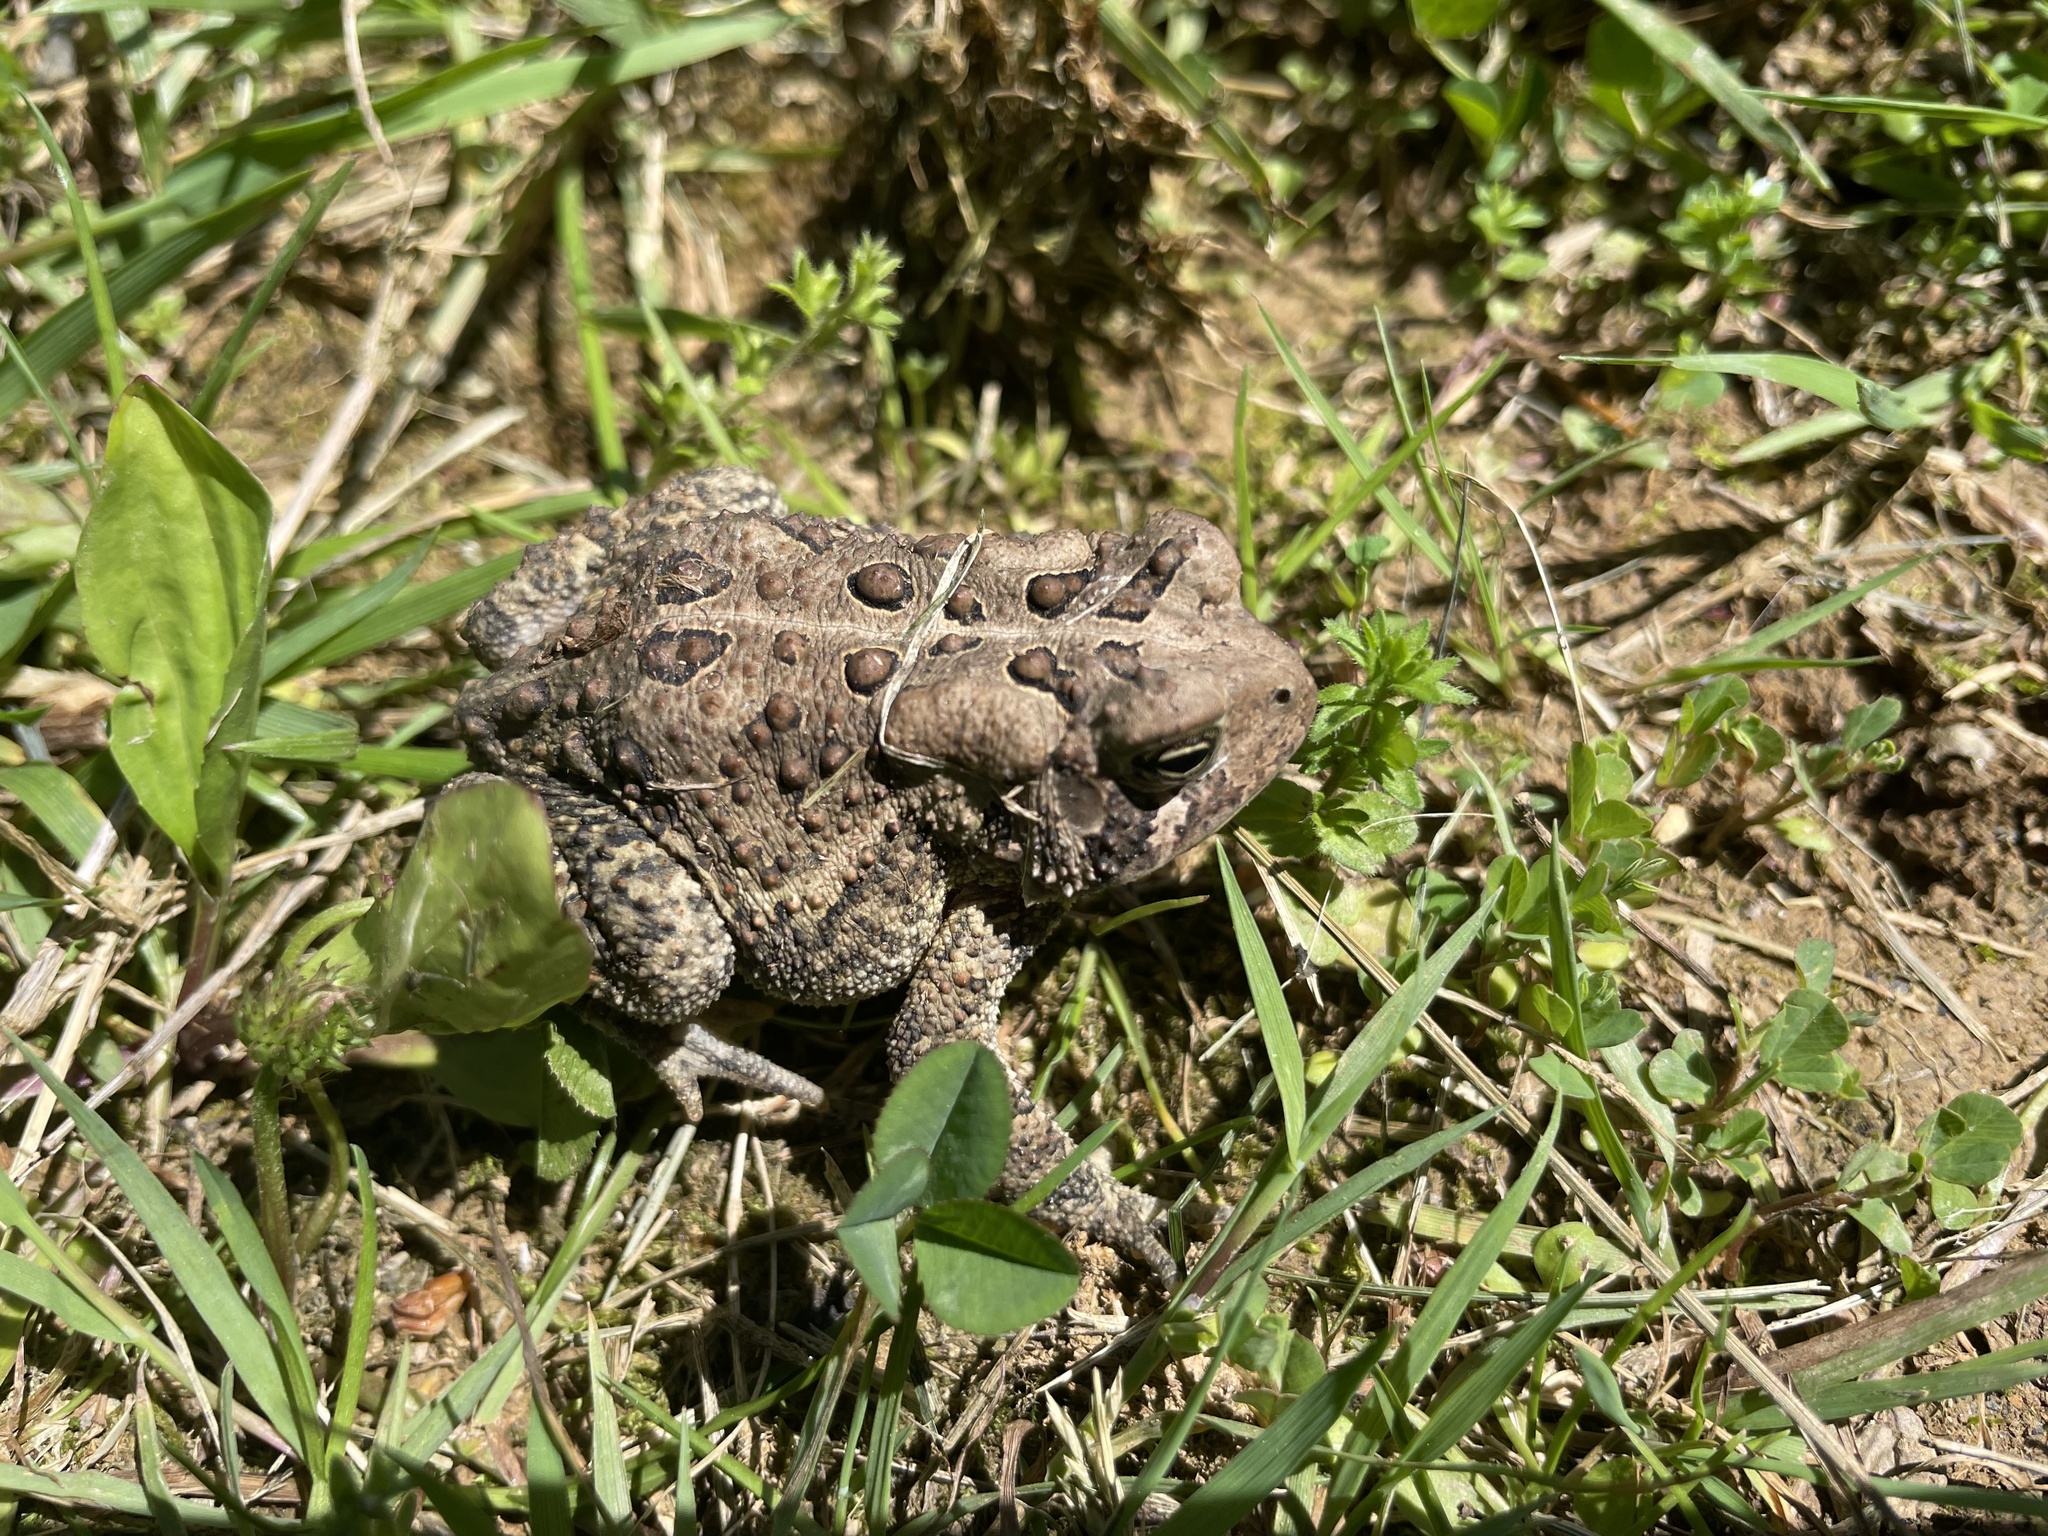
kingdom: Animalia
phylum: Chordata
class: Amphibia
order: Anura
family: Bufonidae
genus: Anaxyrus
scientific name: Anaxyrus americanus
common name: American toad
